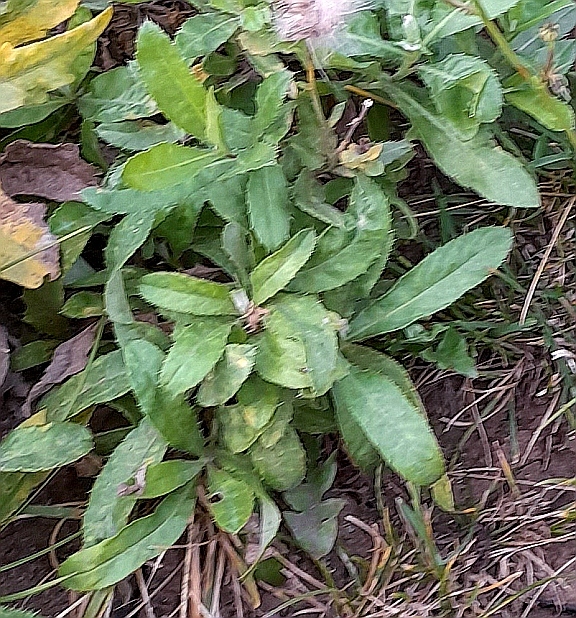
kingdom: Plantae
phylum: Tracheophyta
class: Magnoliopsida
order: Asterales
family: Asteraceae
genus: Cirsium
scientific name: Cirsium arvense
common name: Creeping thistle
